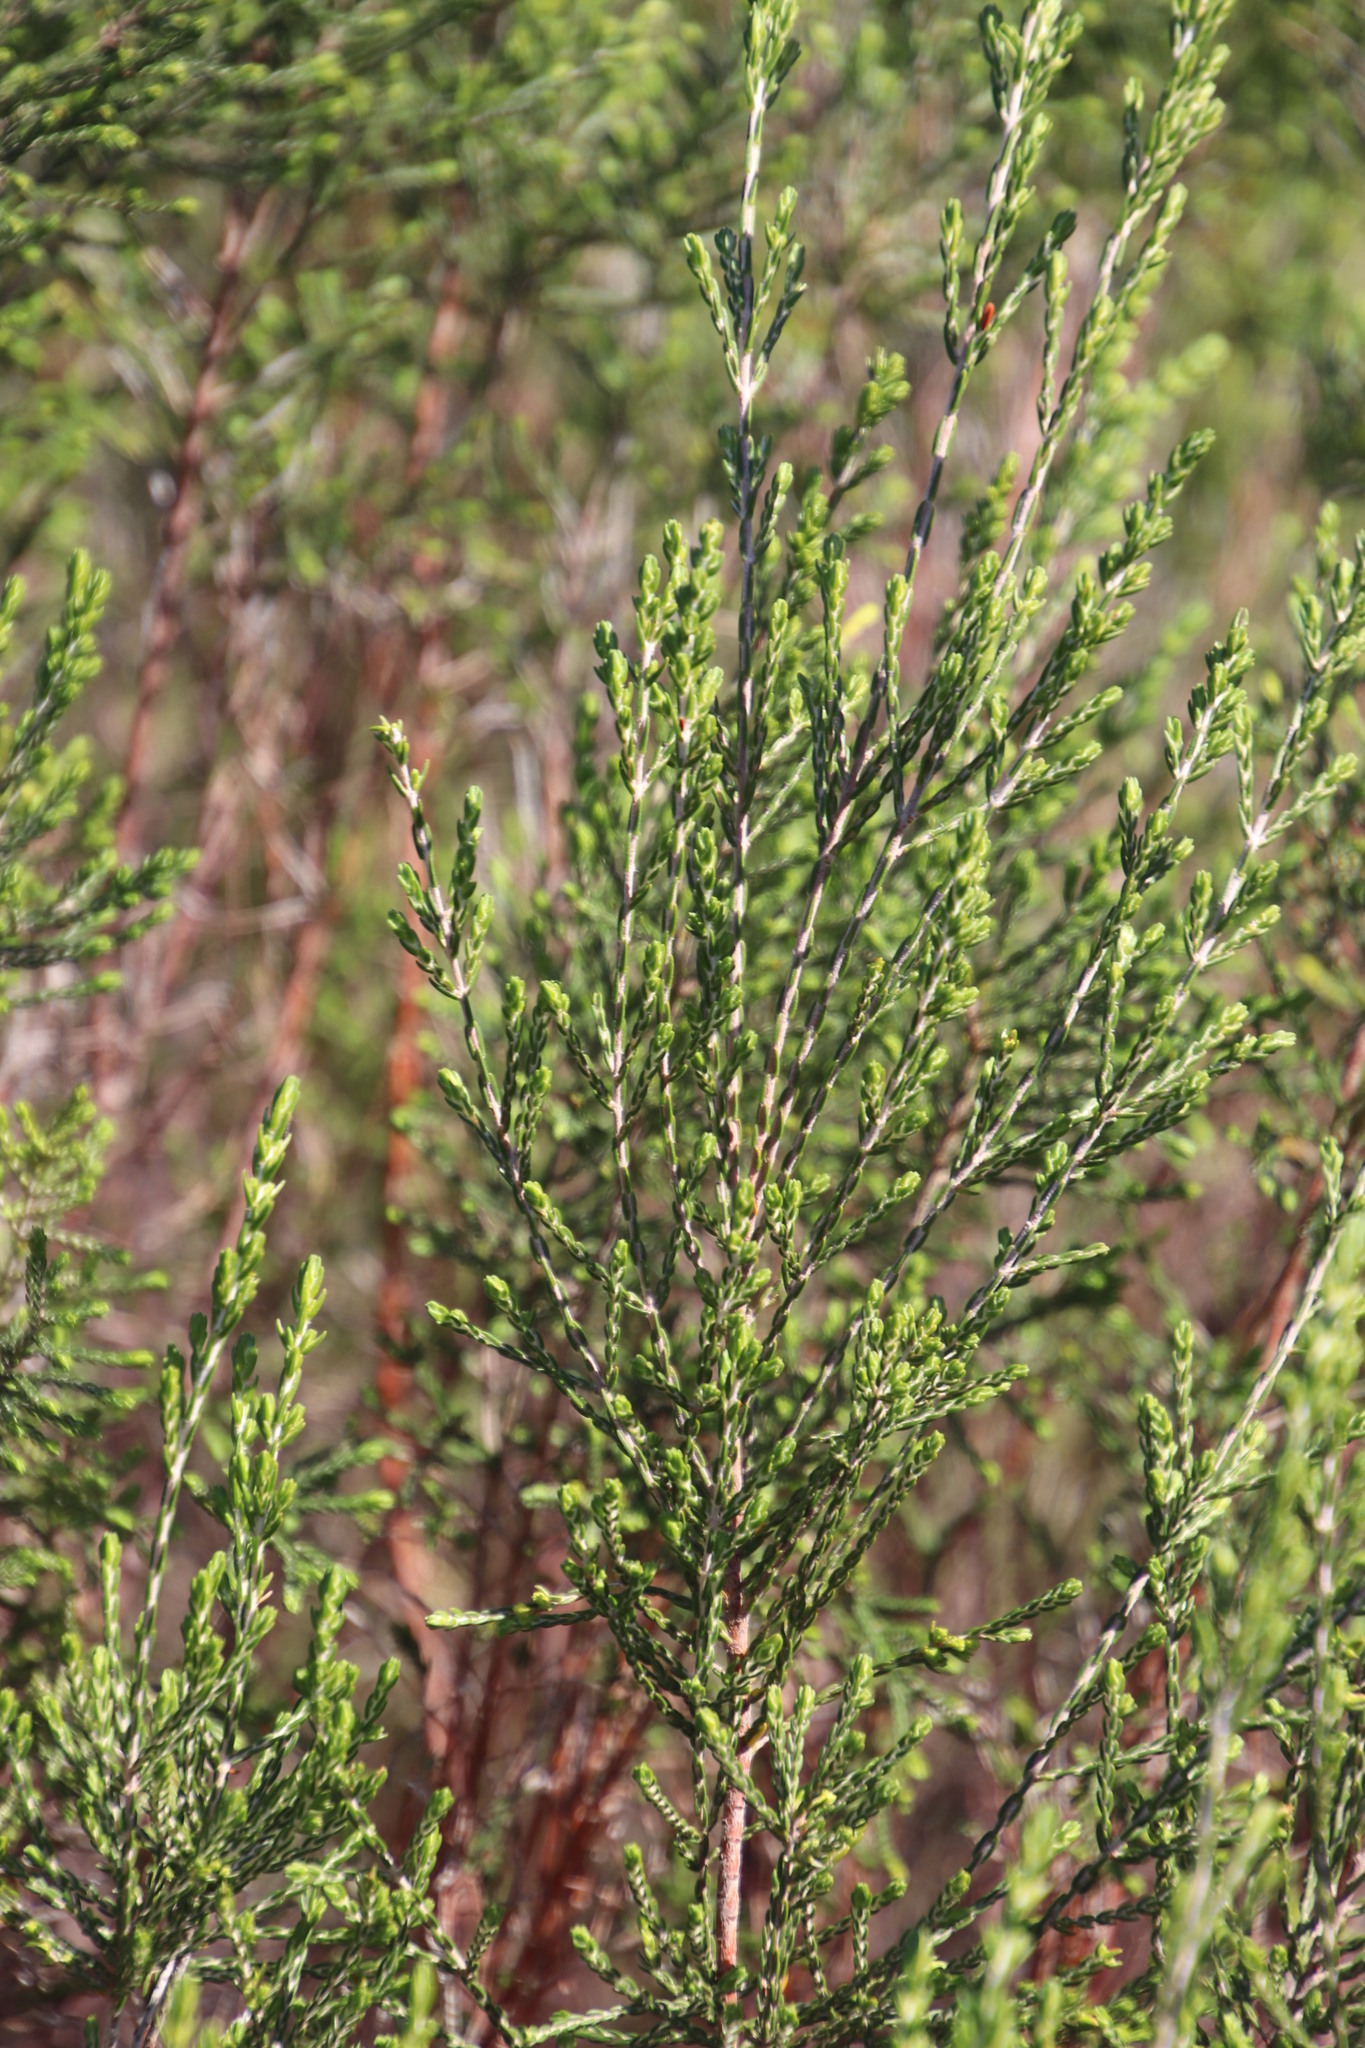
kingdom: Plantae
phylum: Tracheophyta
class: Magnoliopsida
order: Malvales
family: Thymelaeaceae
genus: Passerina
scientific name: Passerina corymbosa
